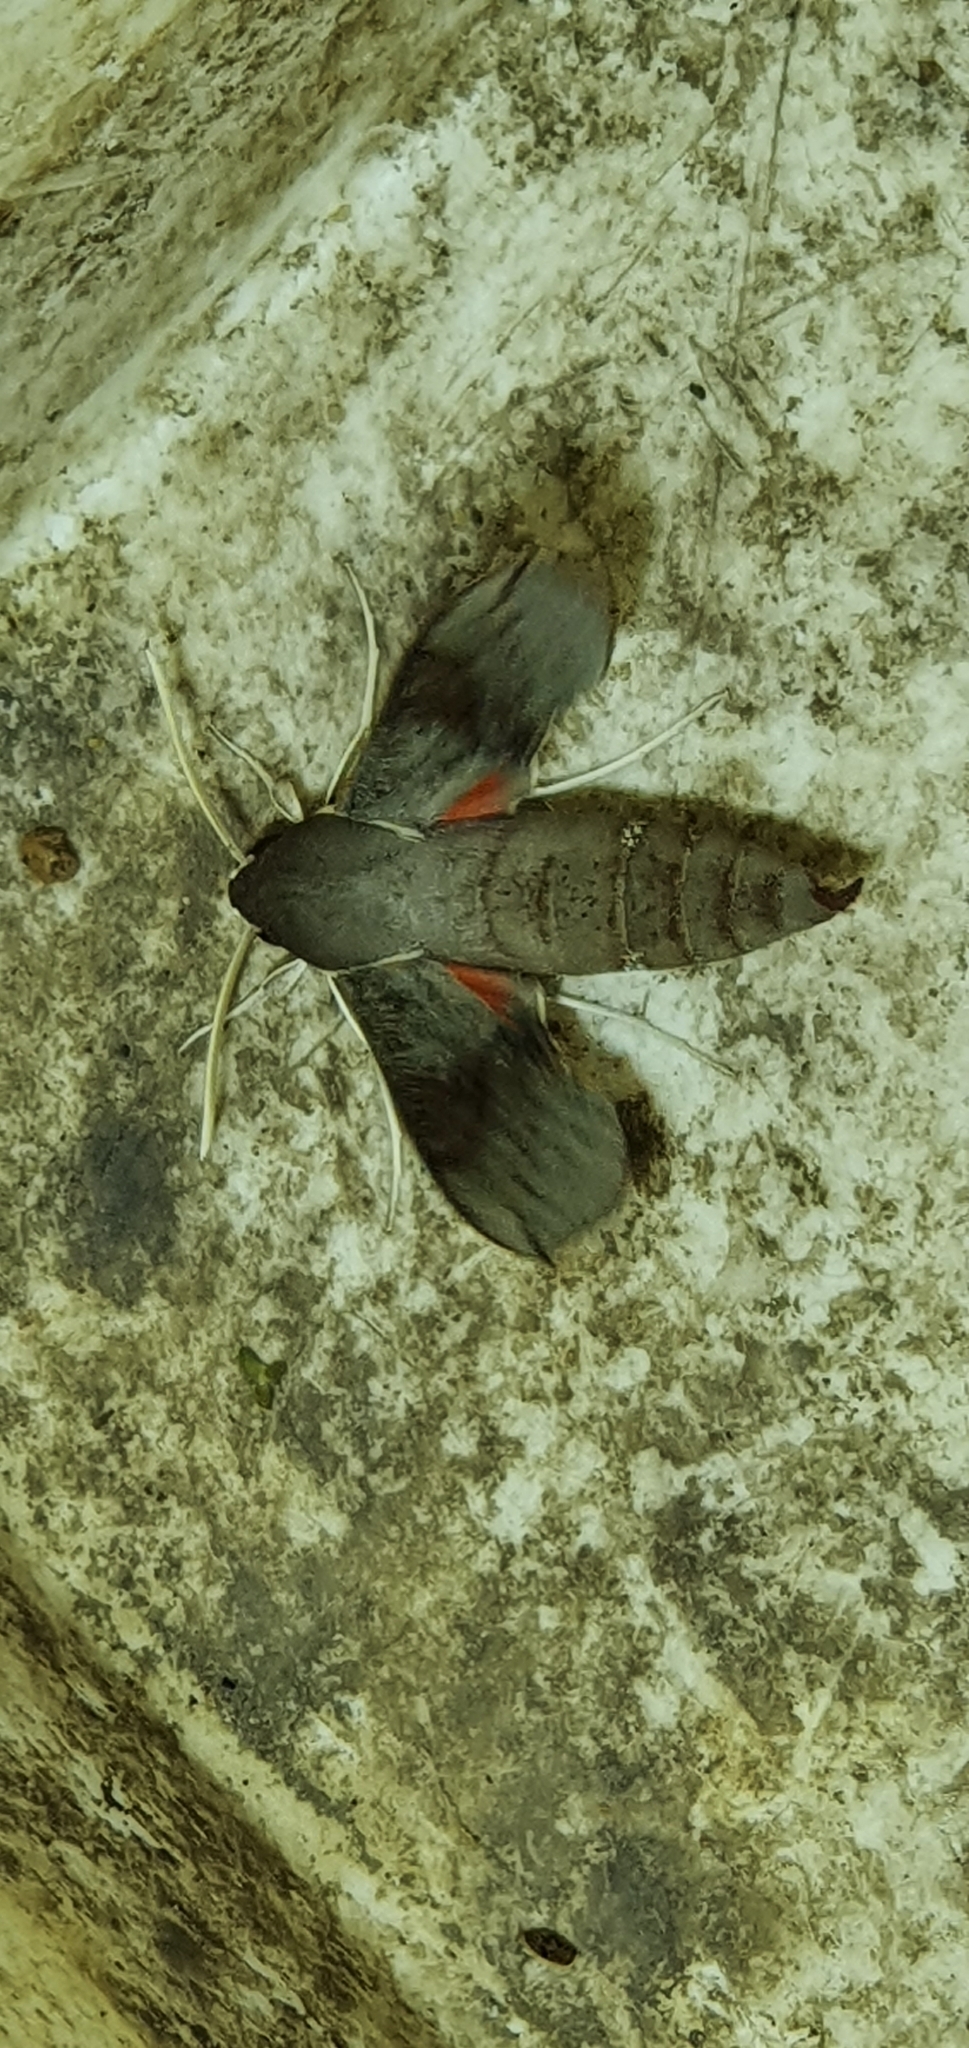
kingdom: Animalia
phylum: Arthropoda
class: Insecta
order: Lepidoptera
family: Sphingidae
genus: Hippotion
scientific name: Hippotion scrofa
